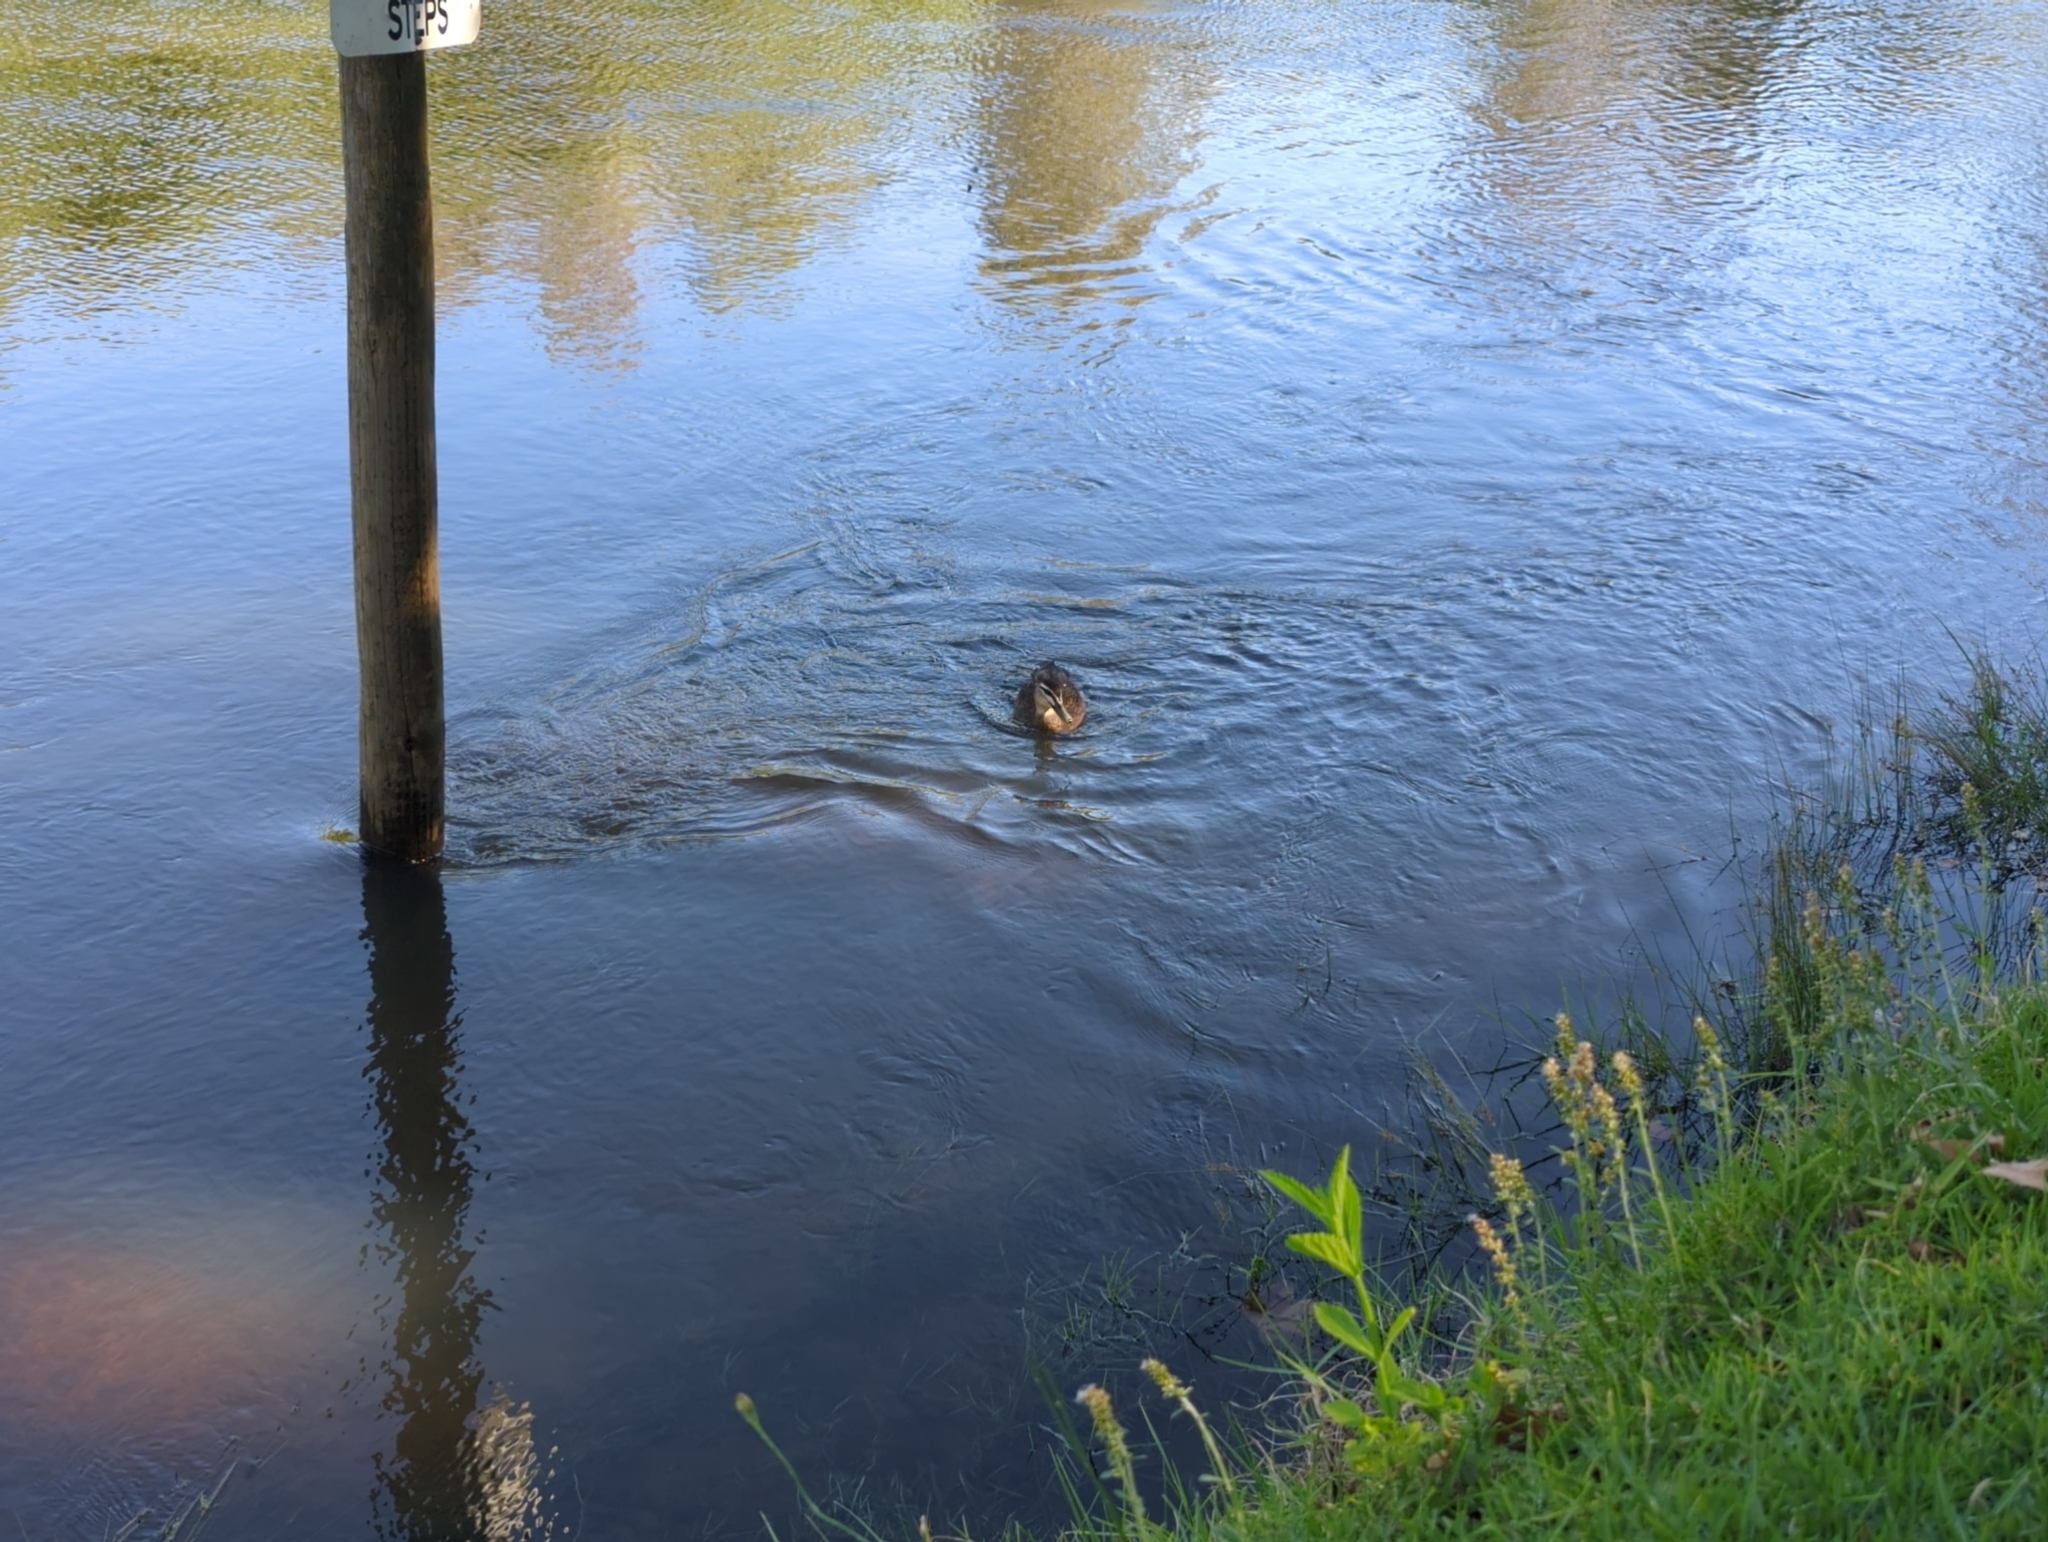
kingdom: Animalia
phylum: Chordata
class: Aves
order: Anseriformes
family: Anatidae
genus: Anas
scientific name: Anas
